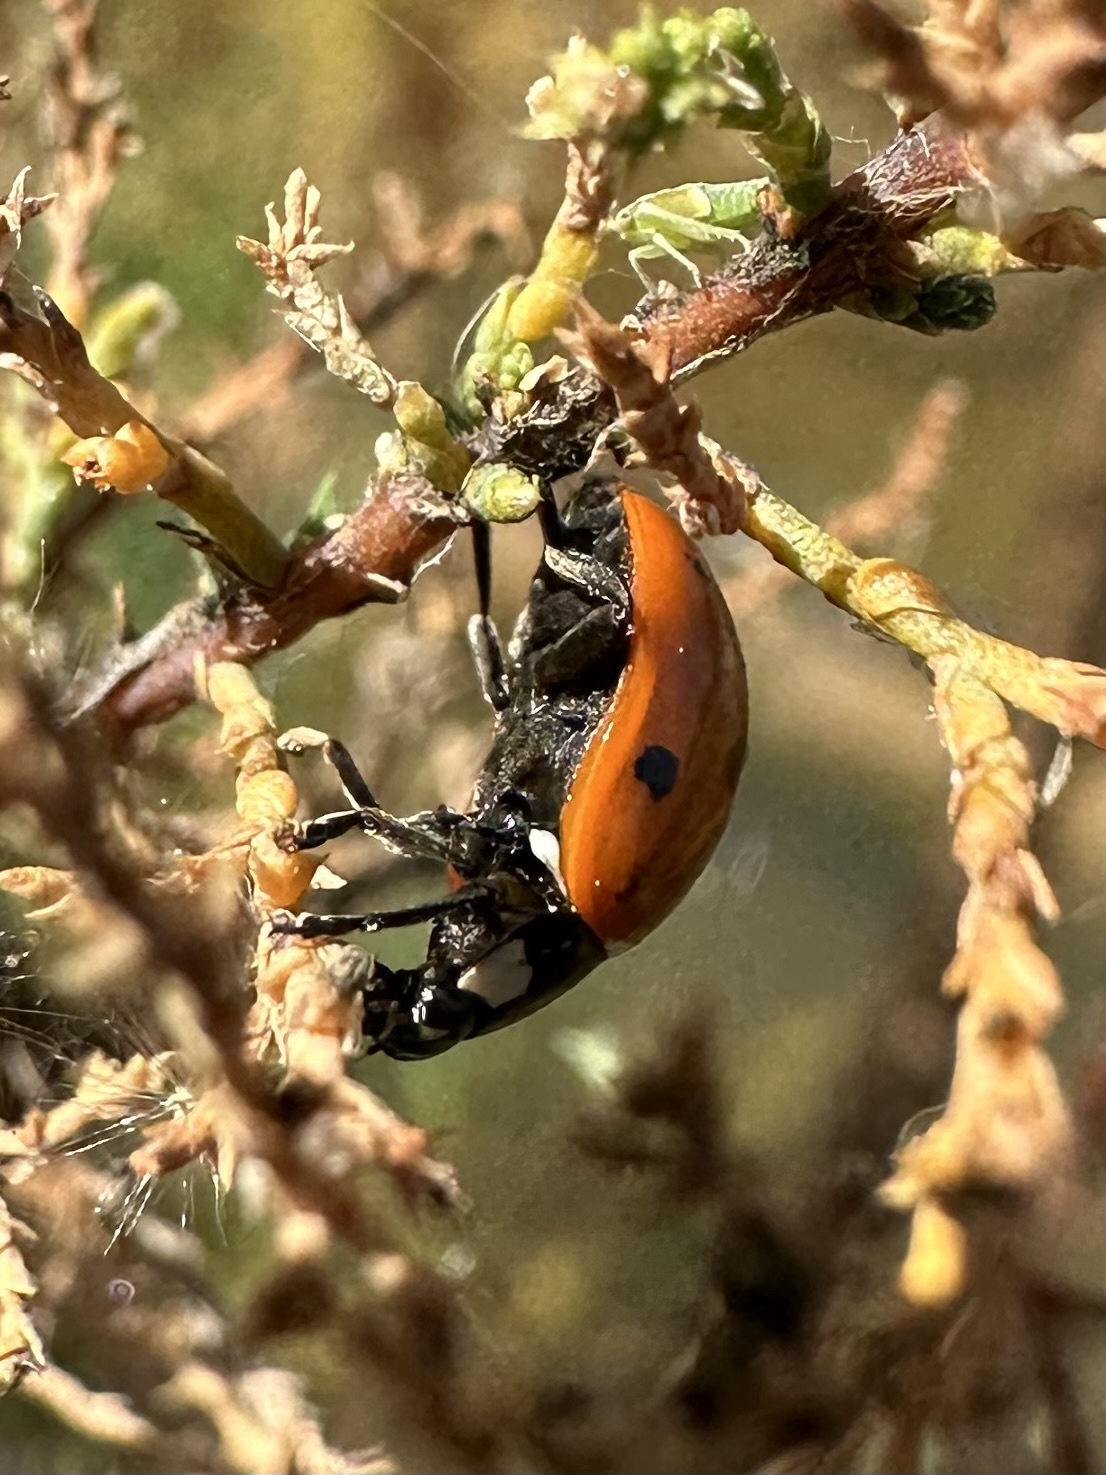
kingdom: Animalia
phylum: Arthropoda
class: Insecta
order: Coleoptera
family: Coccinellidae
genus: Coccinella
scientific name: Coccinella septempunctata
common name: Sevenspotted lady beetle
